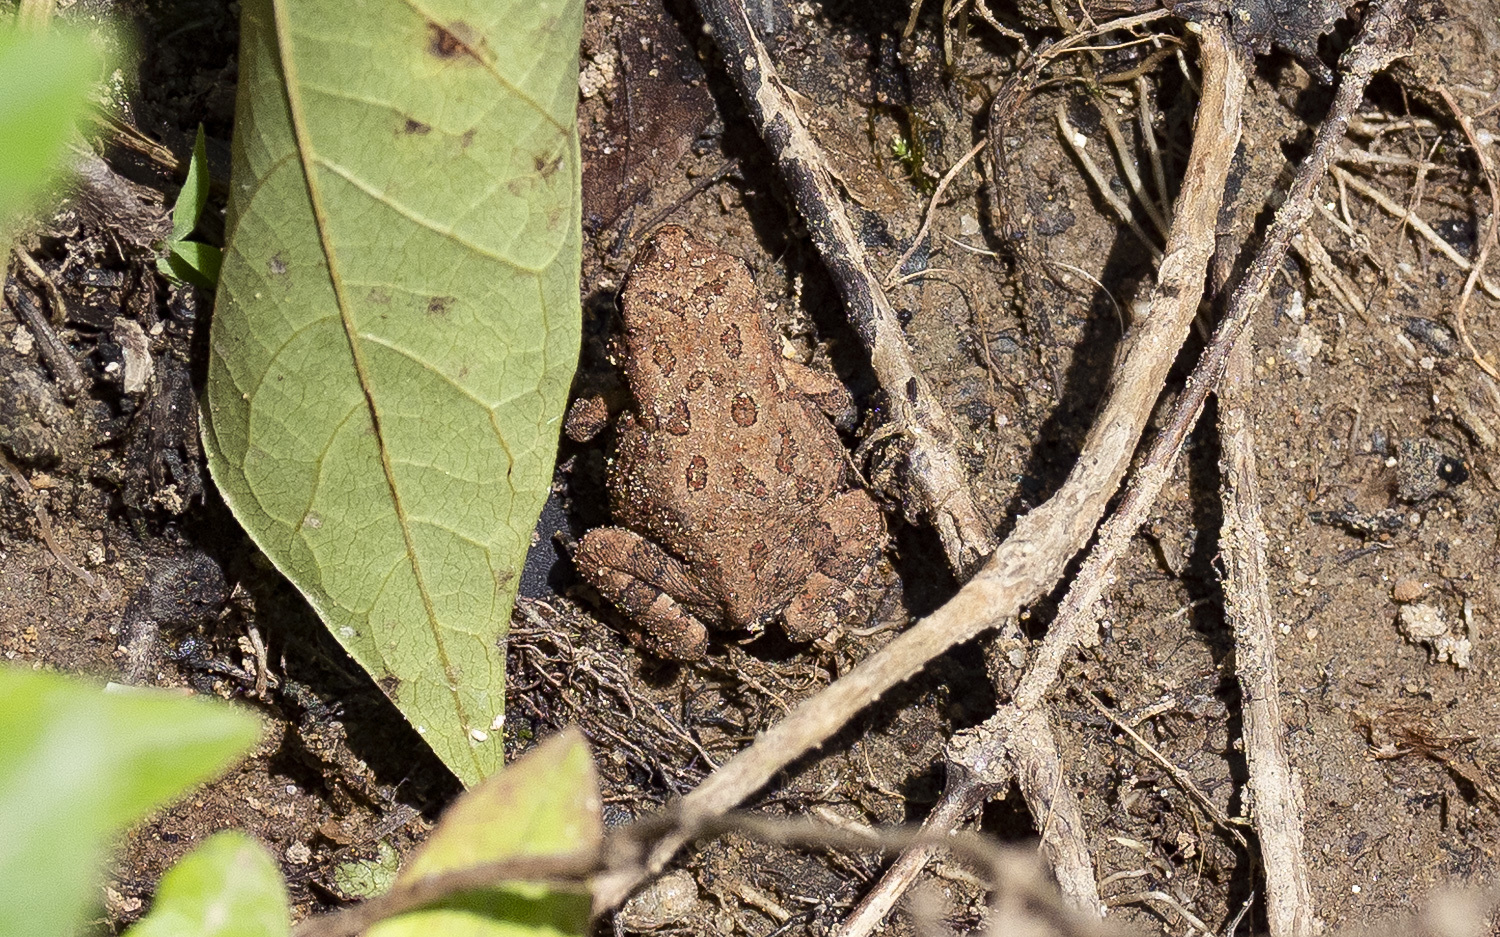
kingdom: Animalia
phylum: Chordata
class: Amphibia
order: Anura
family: Bufonidae
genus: Anaxyrus
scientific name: Anaxyrus fowleri
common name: Fowler's toad
